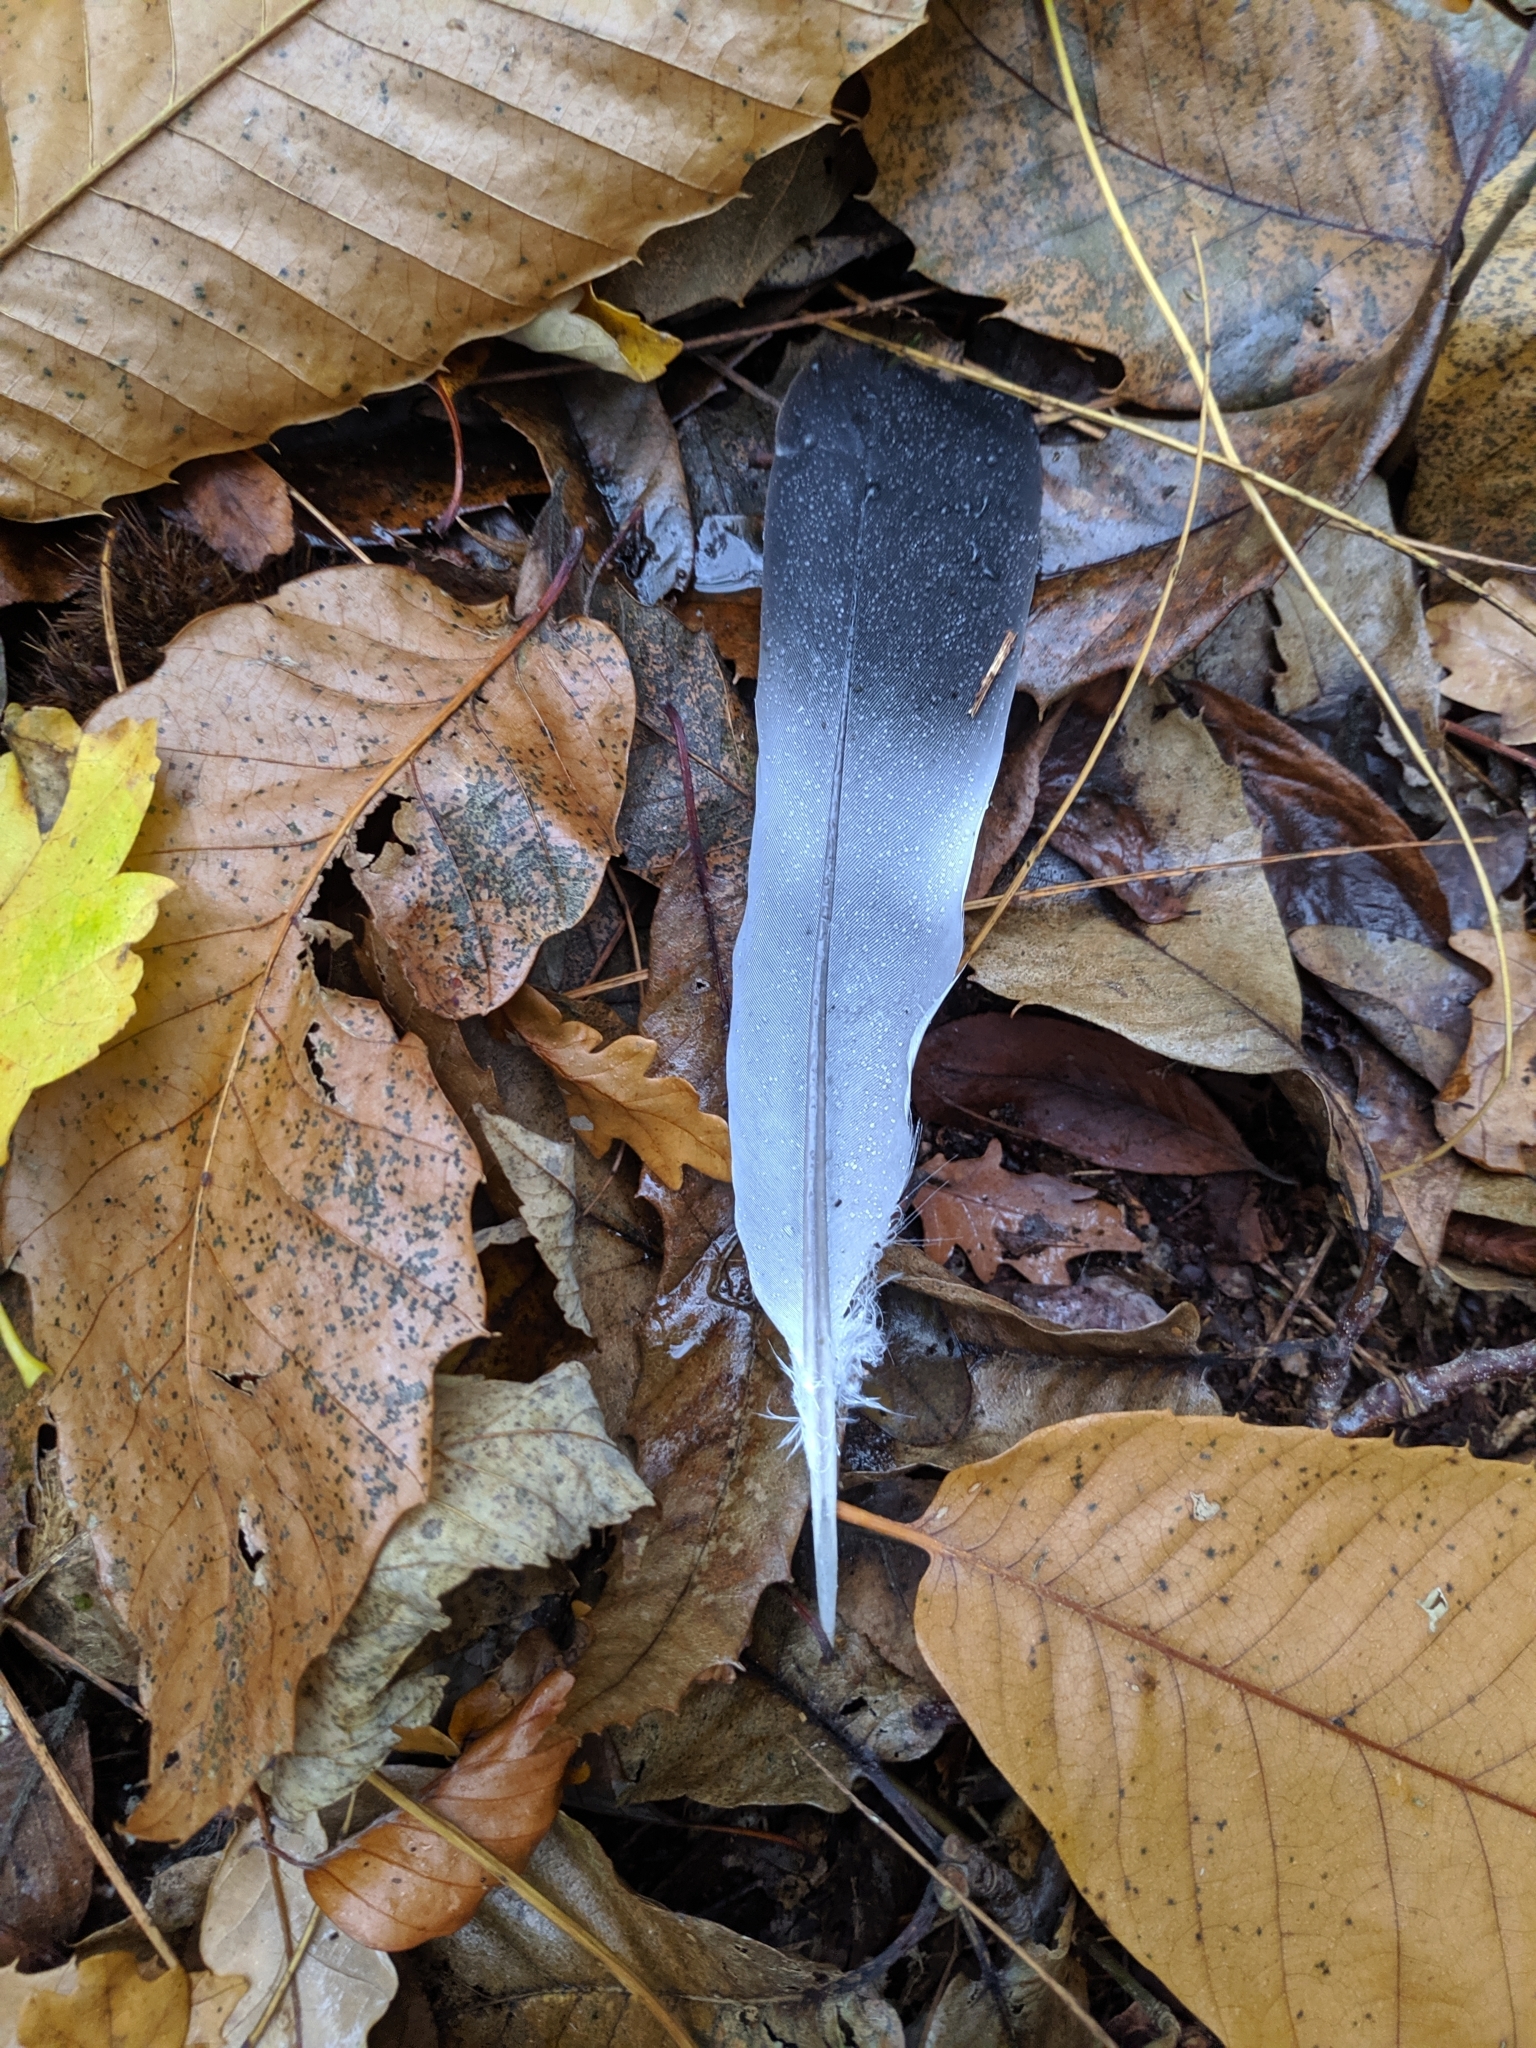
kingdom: Animalia
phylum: Chordata
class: Aves
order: Columbiformes
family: Columbidae
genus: Columba
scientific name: Columba palumbus
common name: Common wood pigeon
